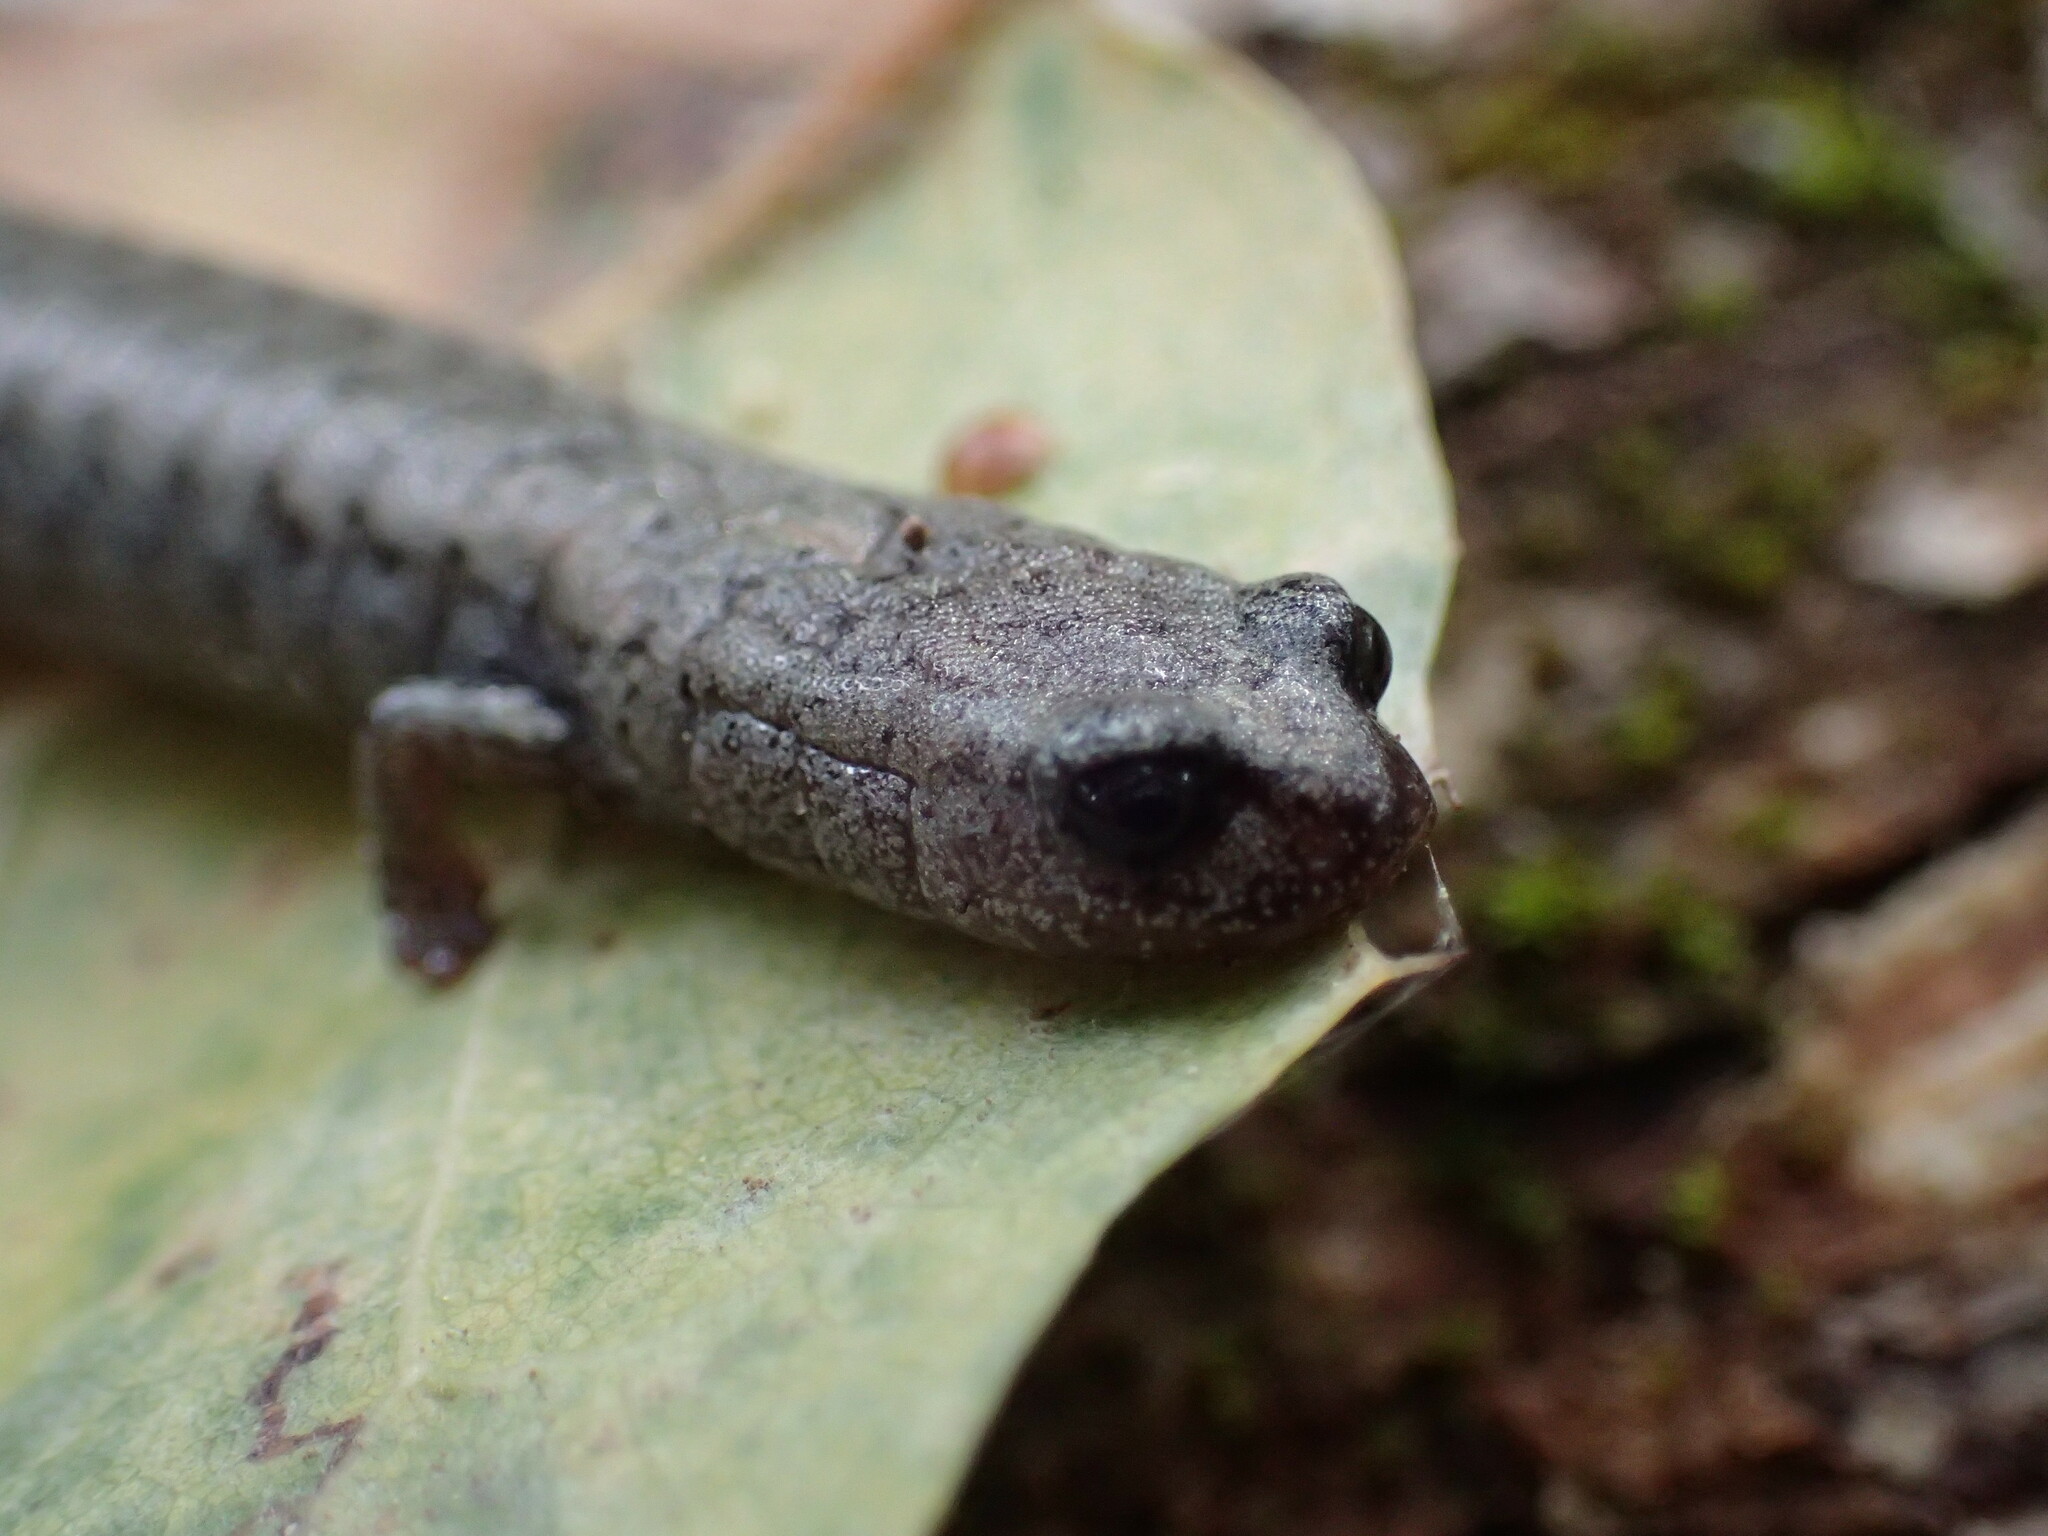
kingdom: Animalia
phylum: Chordata
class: Amphibia
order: Caudata
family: Plethodontidae
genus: Batrachoseps
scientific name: Batrachoseps gavilanensis
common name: Gabilan mountains slender salamander
